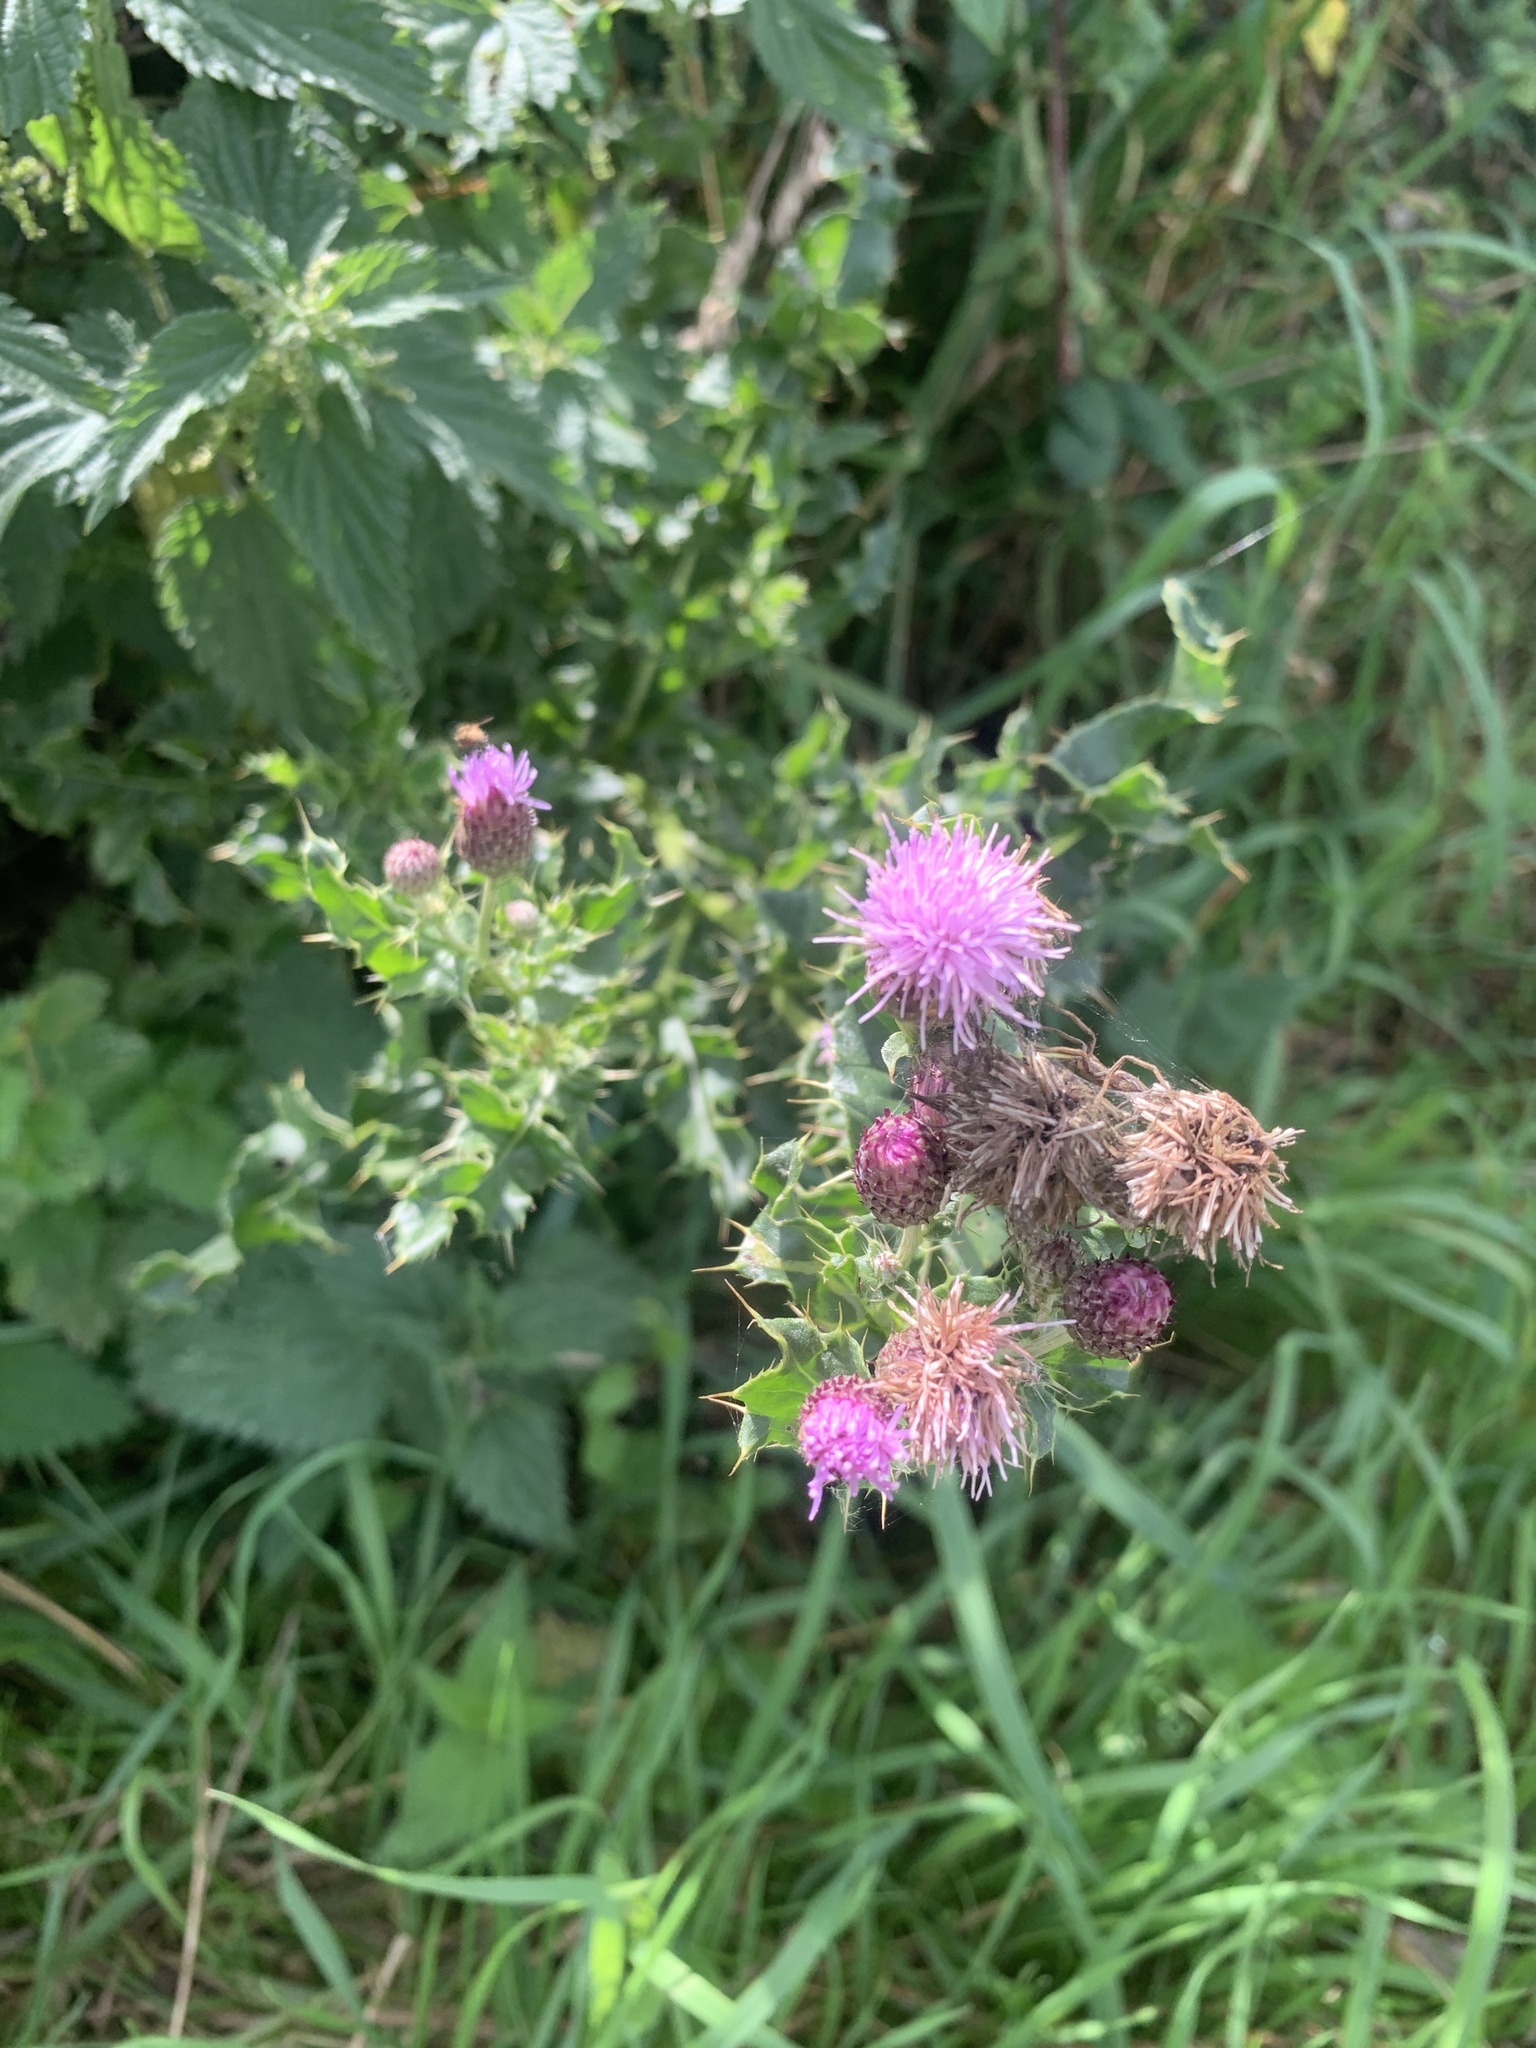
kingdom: Plantae
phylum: Tracheophyta
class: Magnoliopsida
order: Asterales
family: Asteraceae
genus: Cirsium
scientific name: Cirsium arvense
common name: Creeping thistle
